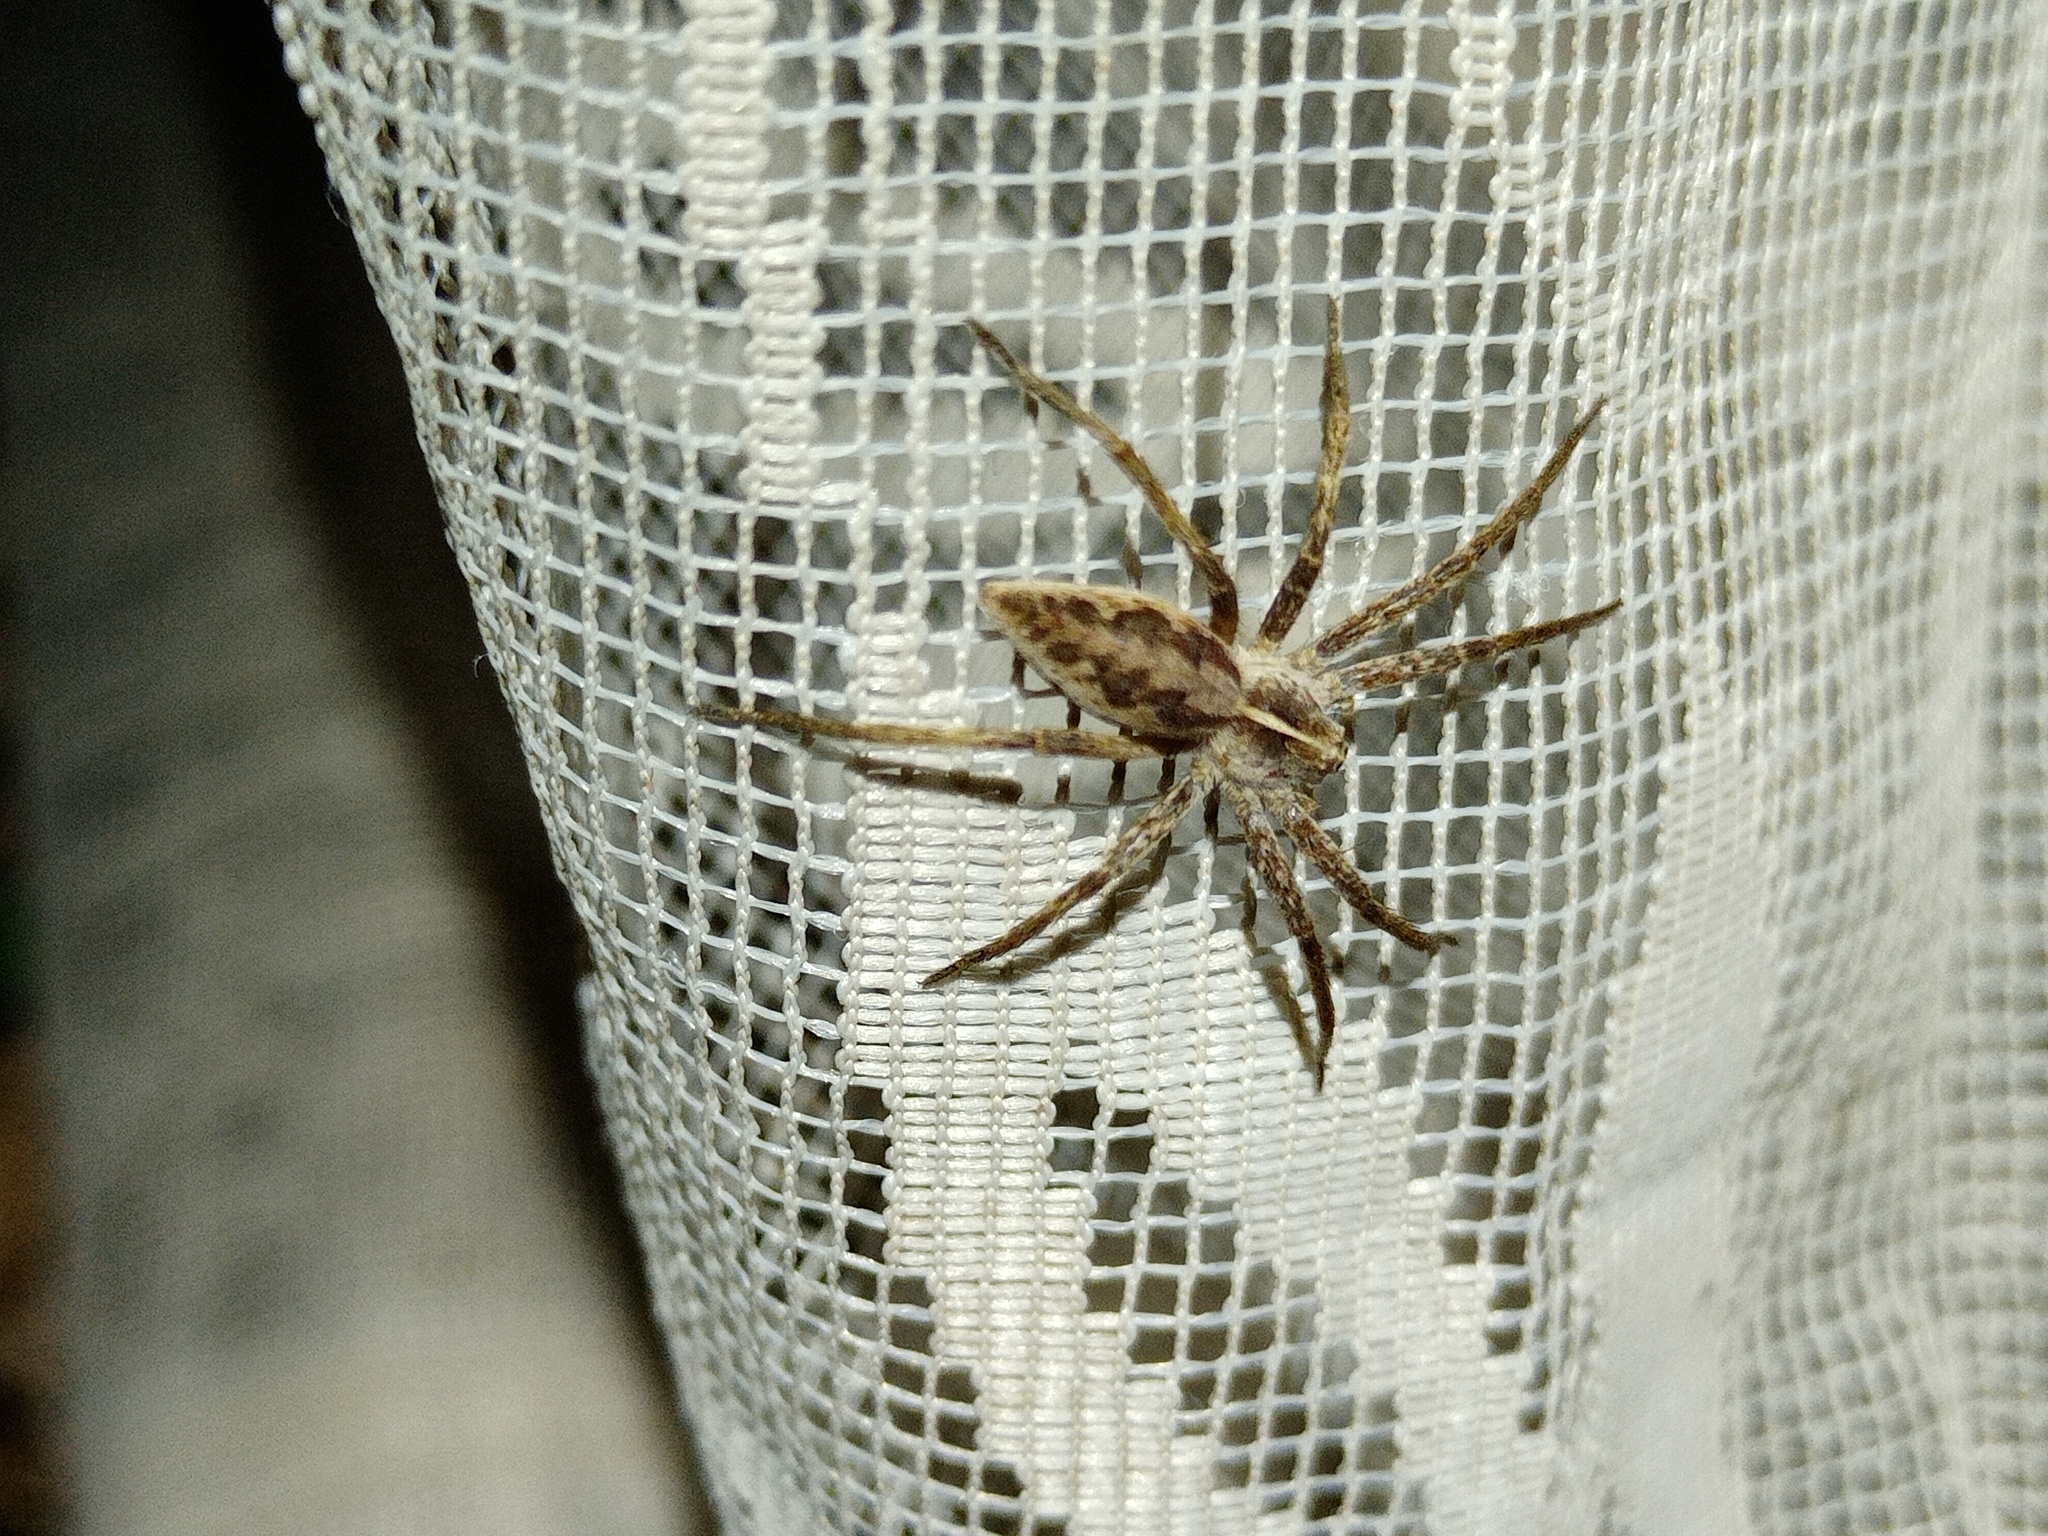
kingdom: Animalia
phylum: Arthropoda
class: Arachnida
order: Araneae
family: Pisauridae
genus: Pisaura
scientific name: Pisaura mirabilis
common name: Tent spider
